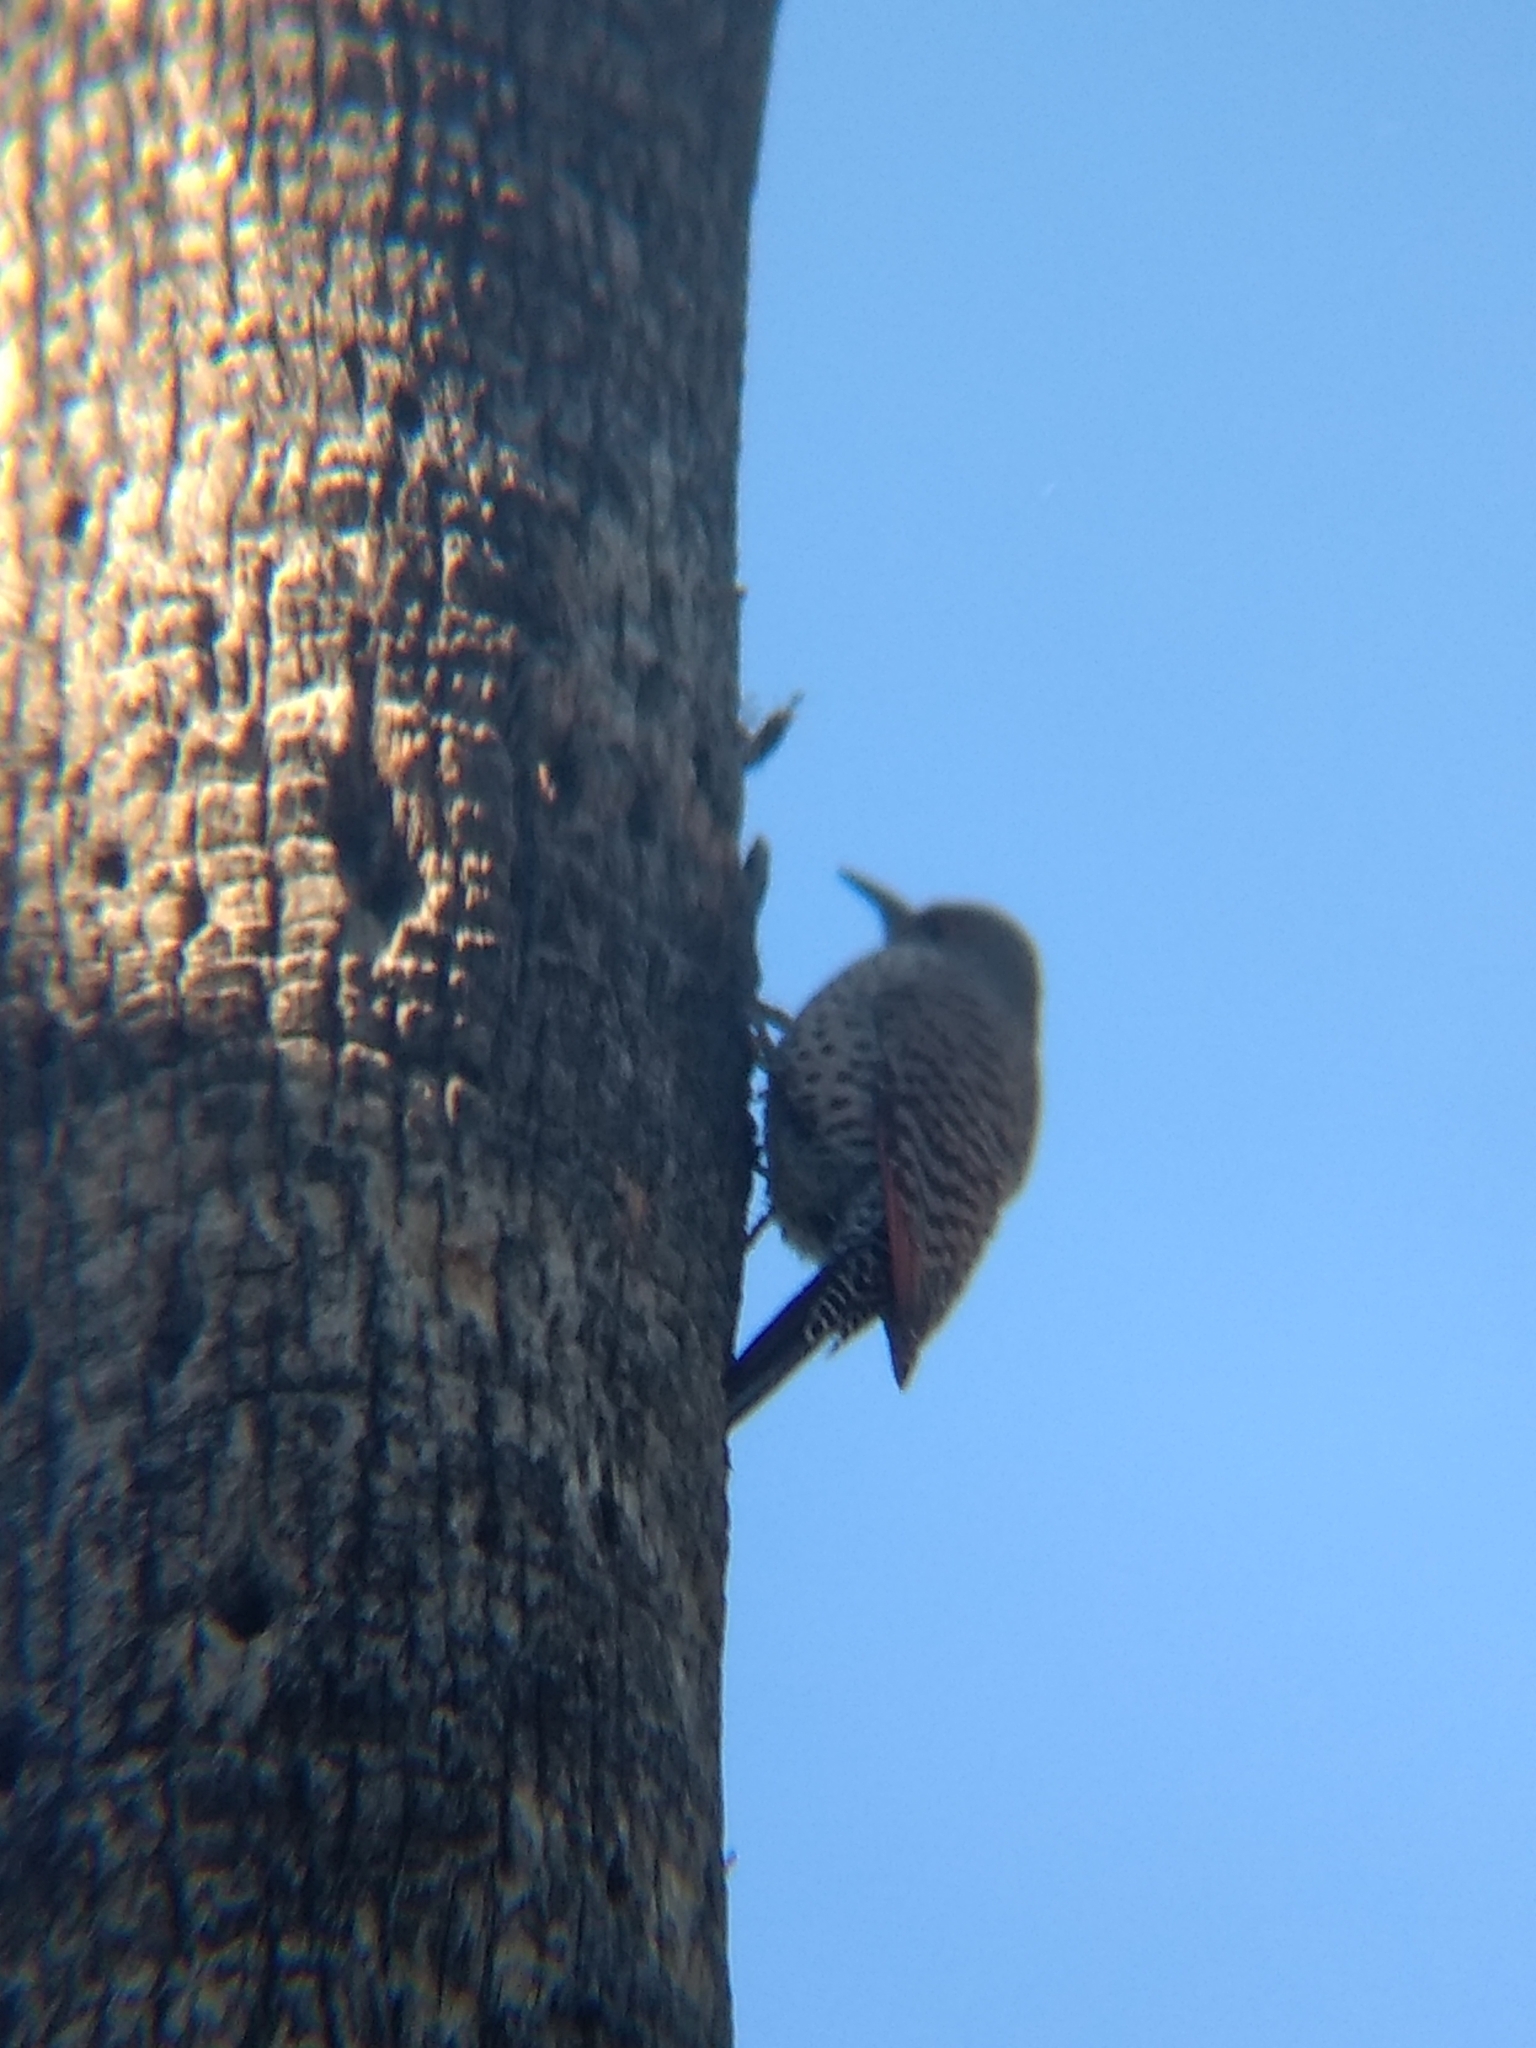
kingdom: Animalia
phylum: Chordata
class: Aves
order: Piciformes
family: Picidae
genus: Colaptes
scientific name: Colaptes auratus
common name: Northern flicker
